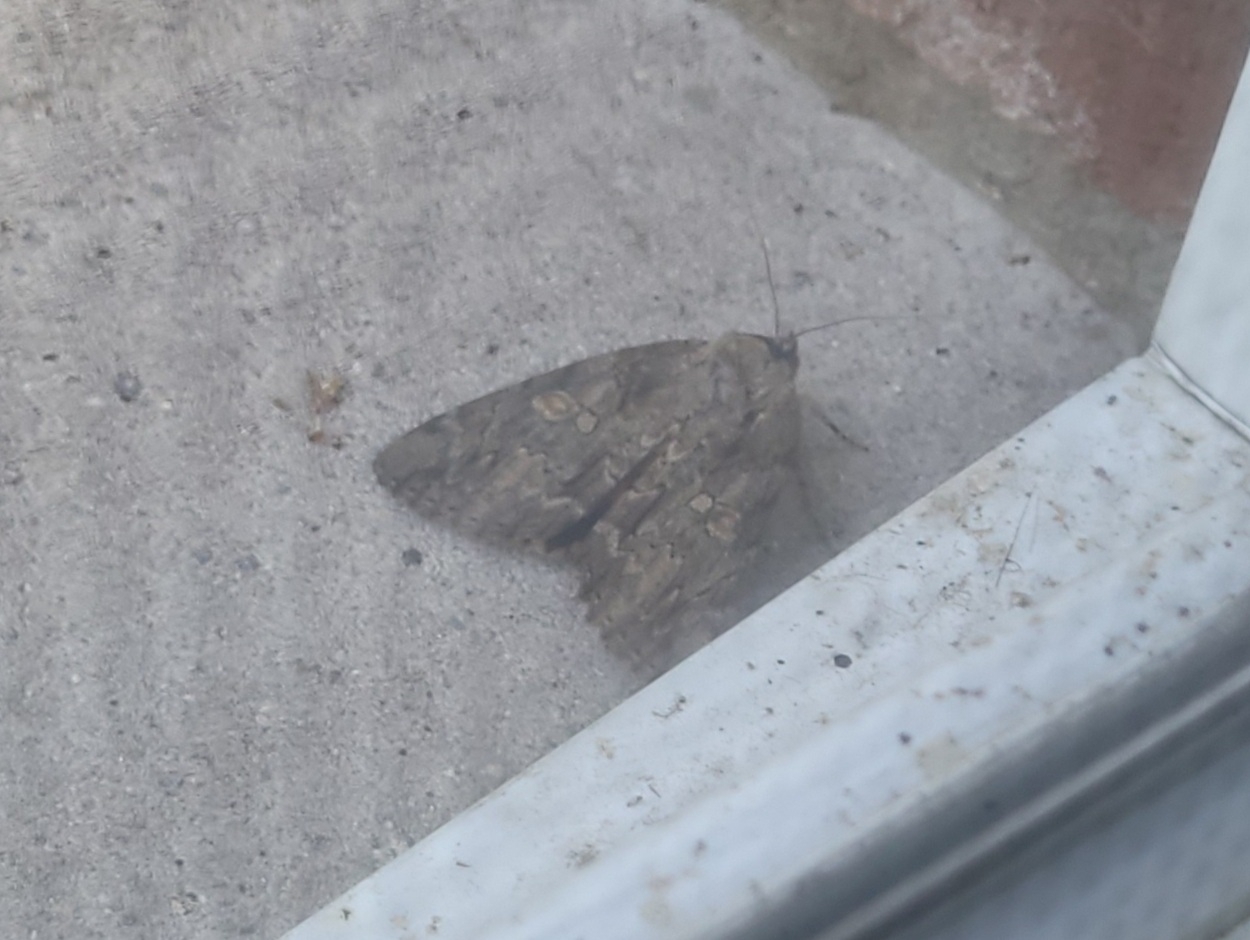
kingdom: Animalia
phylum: Arthropoda
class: Insecta
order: Lepidoptera
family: Erebidae
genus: Catocala
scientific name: Catocala neogama
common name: Bride underwing
